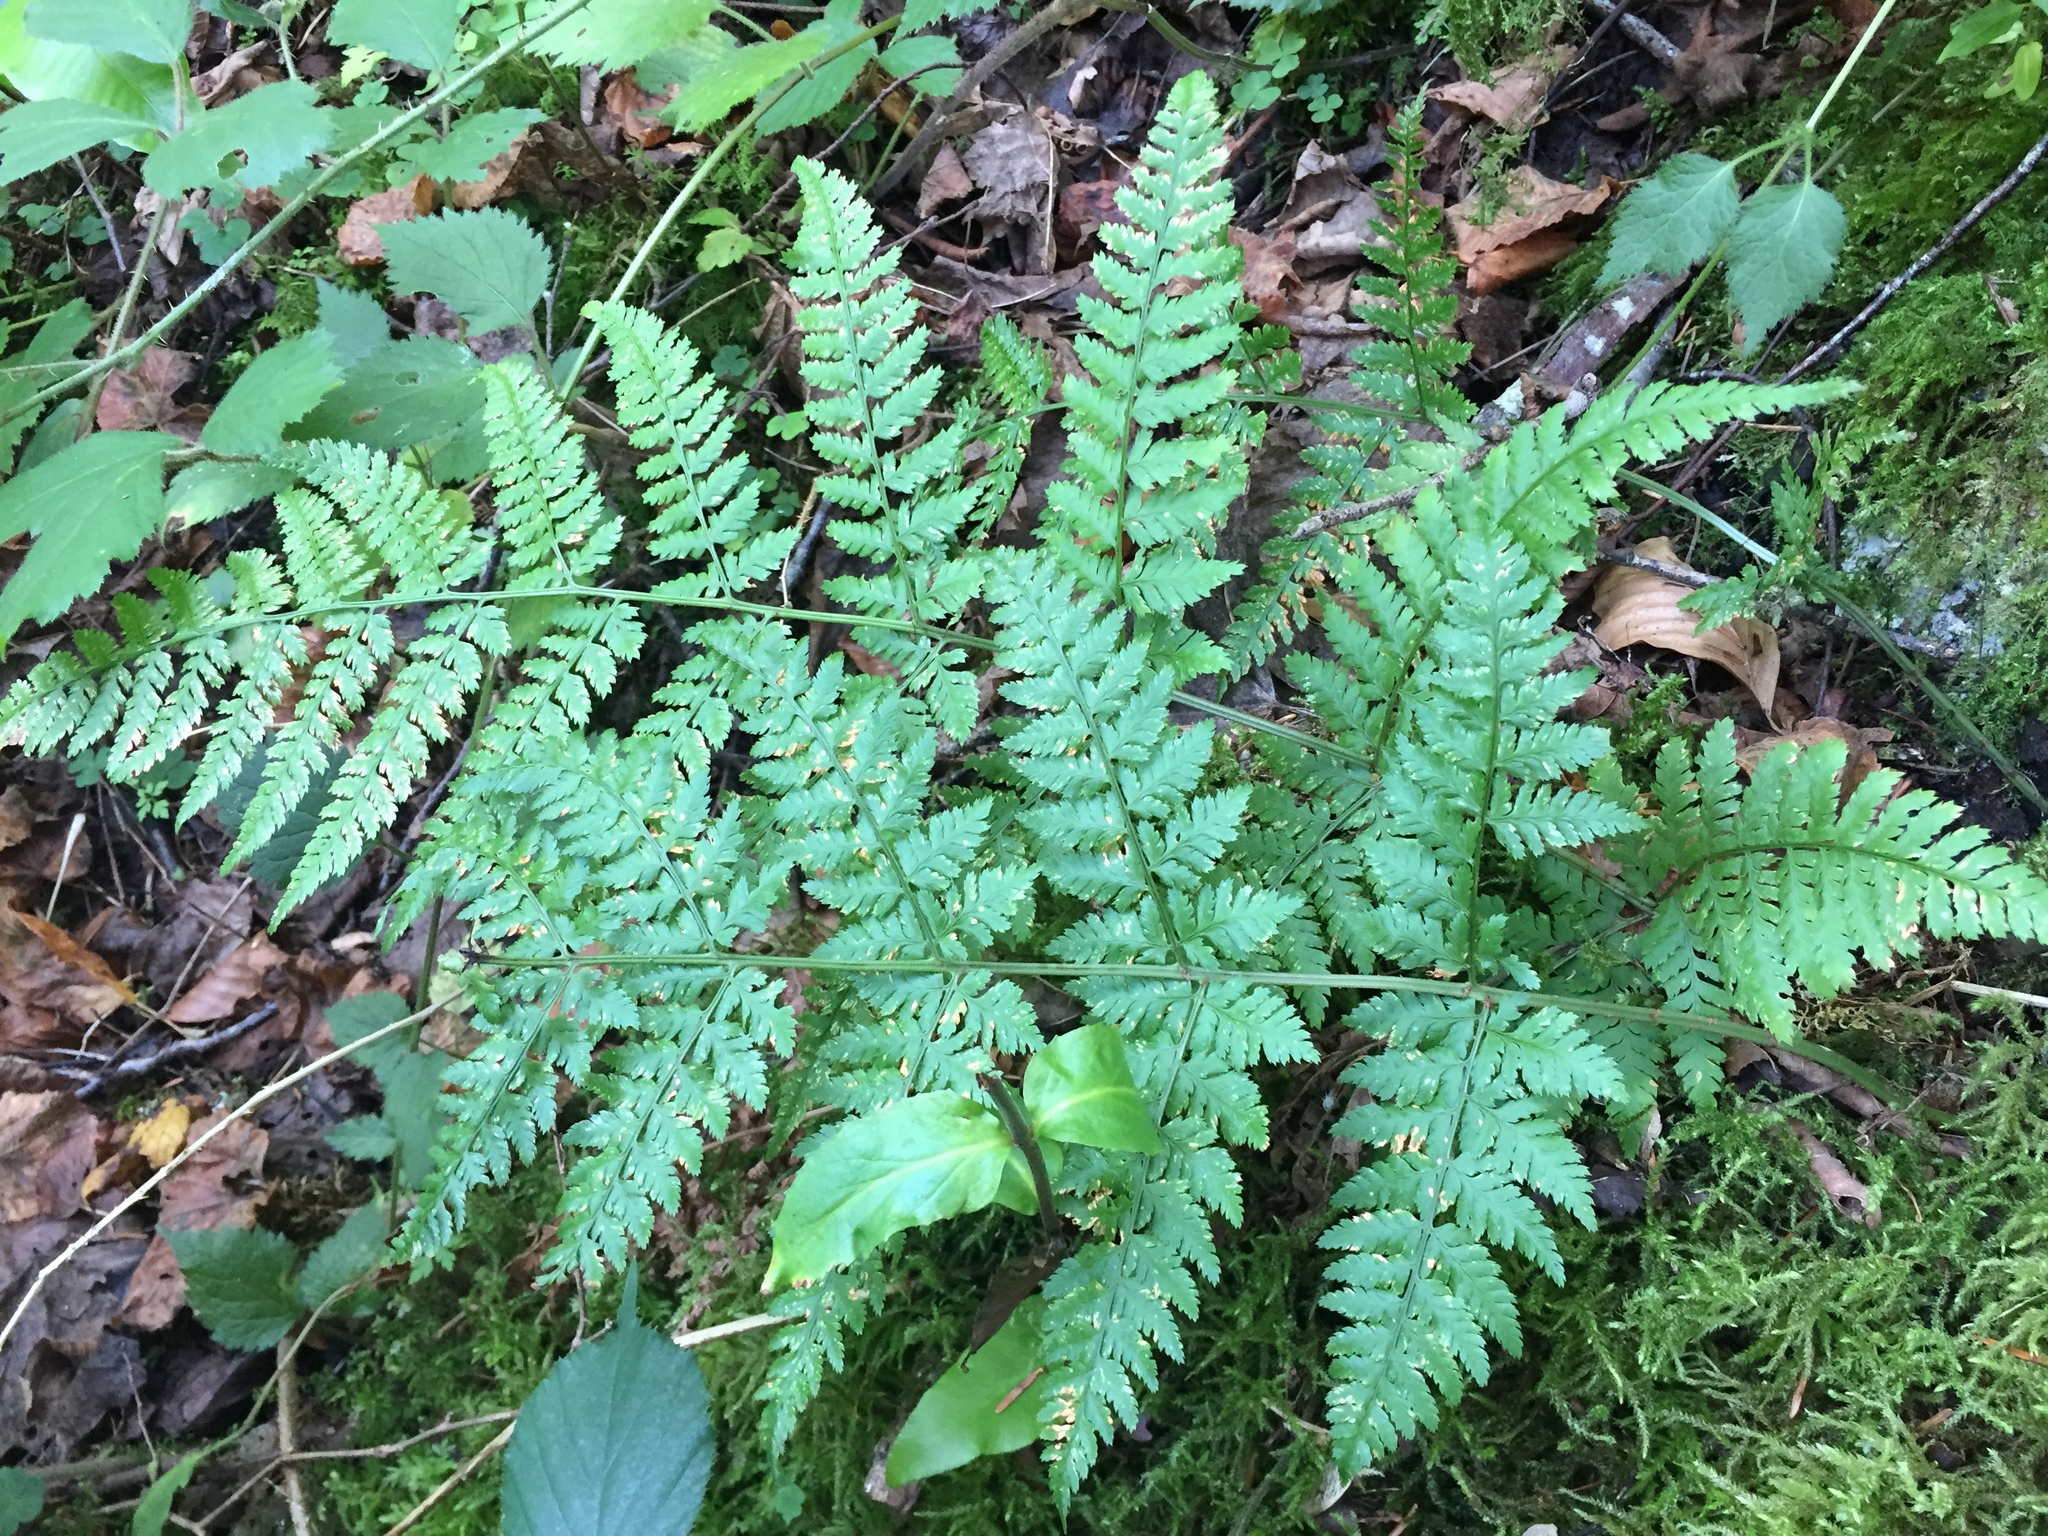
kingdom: Plantae
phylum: Tracheophyta
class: Polypodiopsida
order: Polypodiales
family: Dryopteridaceae
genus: Dryopteris
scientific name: Dryopteris carthusiana
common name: Narrow buckler-fern
